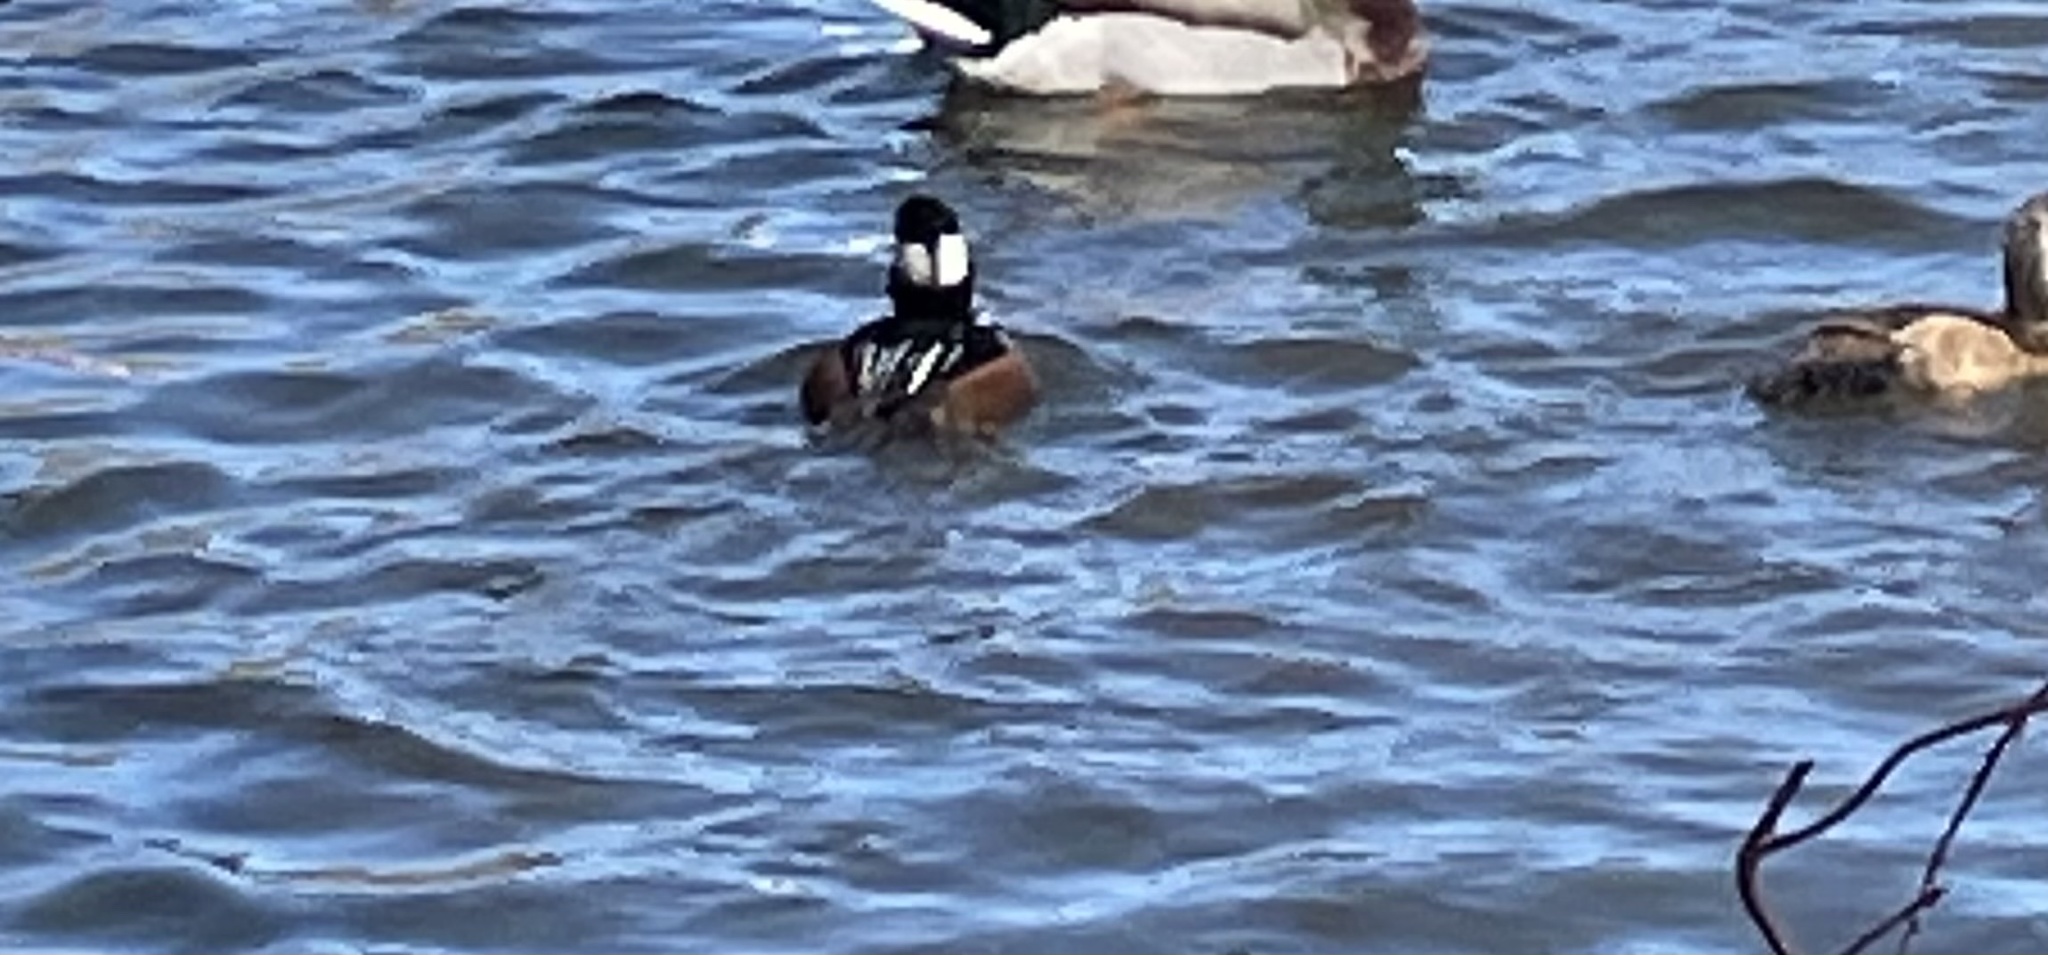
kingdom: Animalia
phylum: Chordata
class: Aves
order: Anseriformes
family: Anatidae
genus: Lophodytes
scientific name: Lophodytes cucullatus
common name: Hooded merganser
